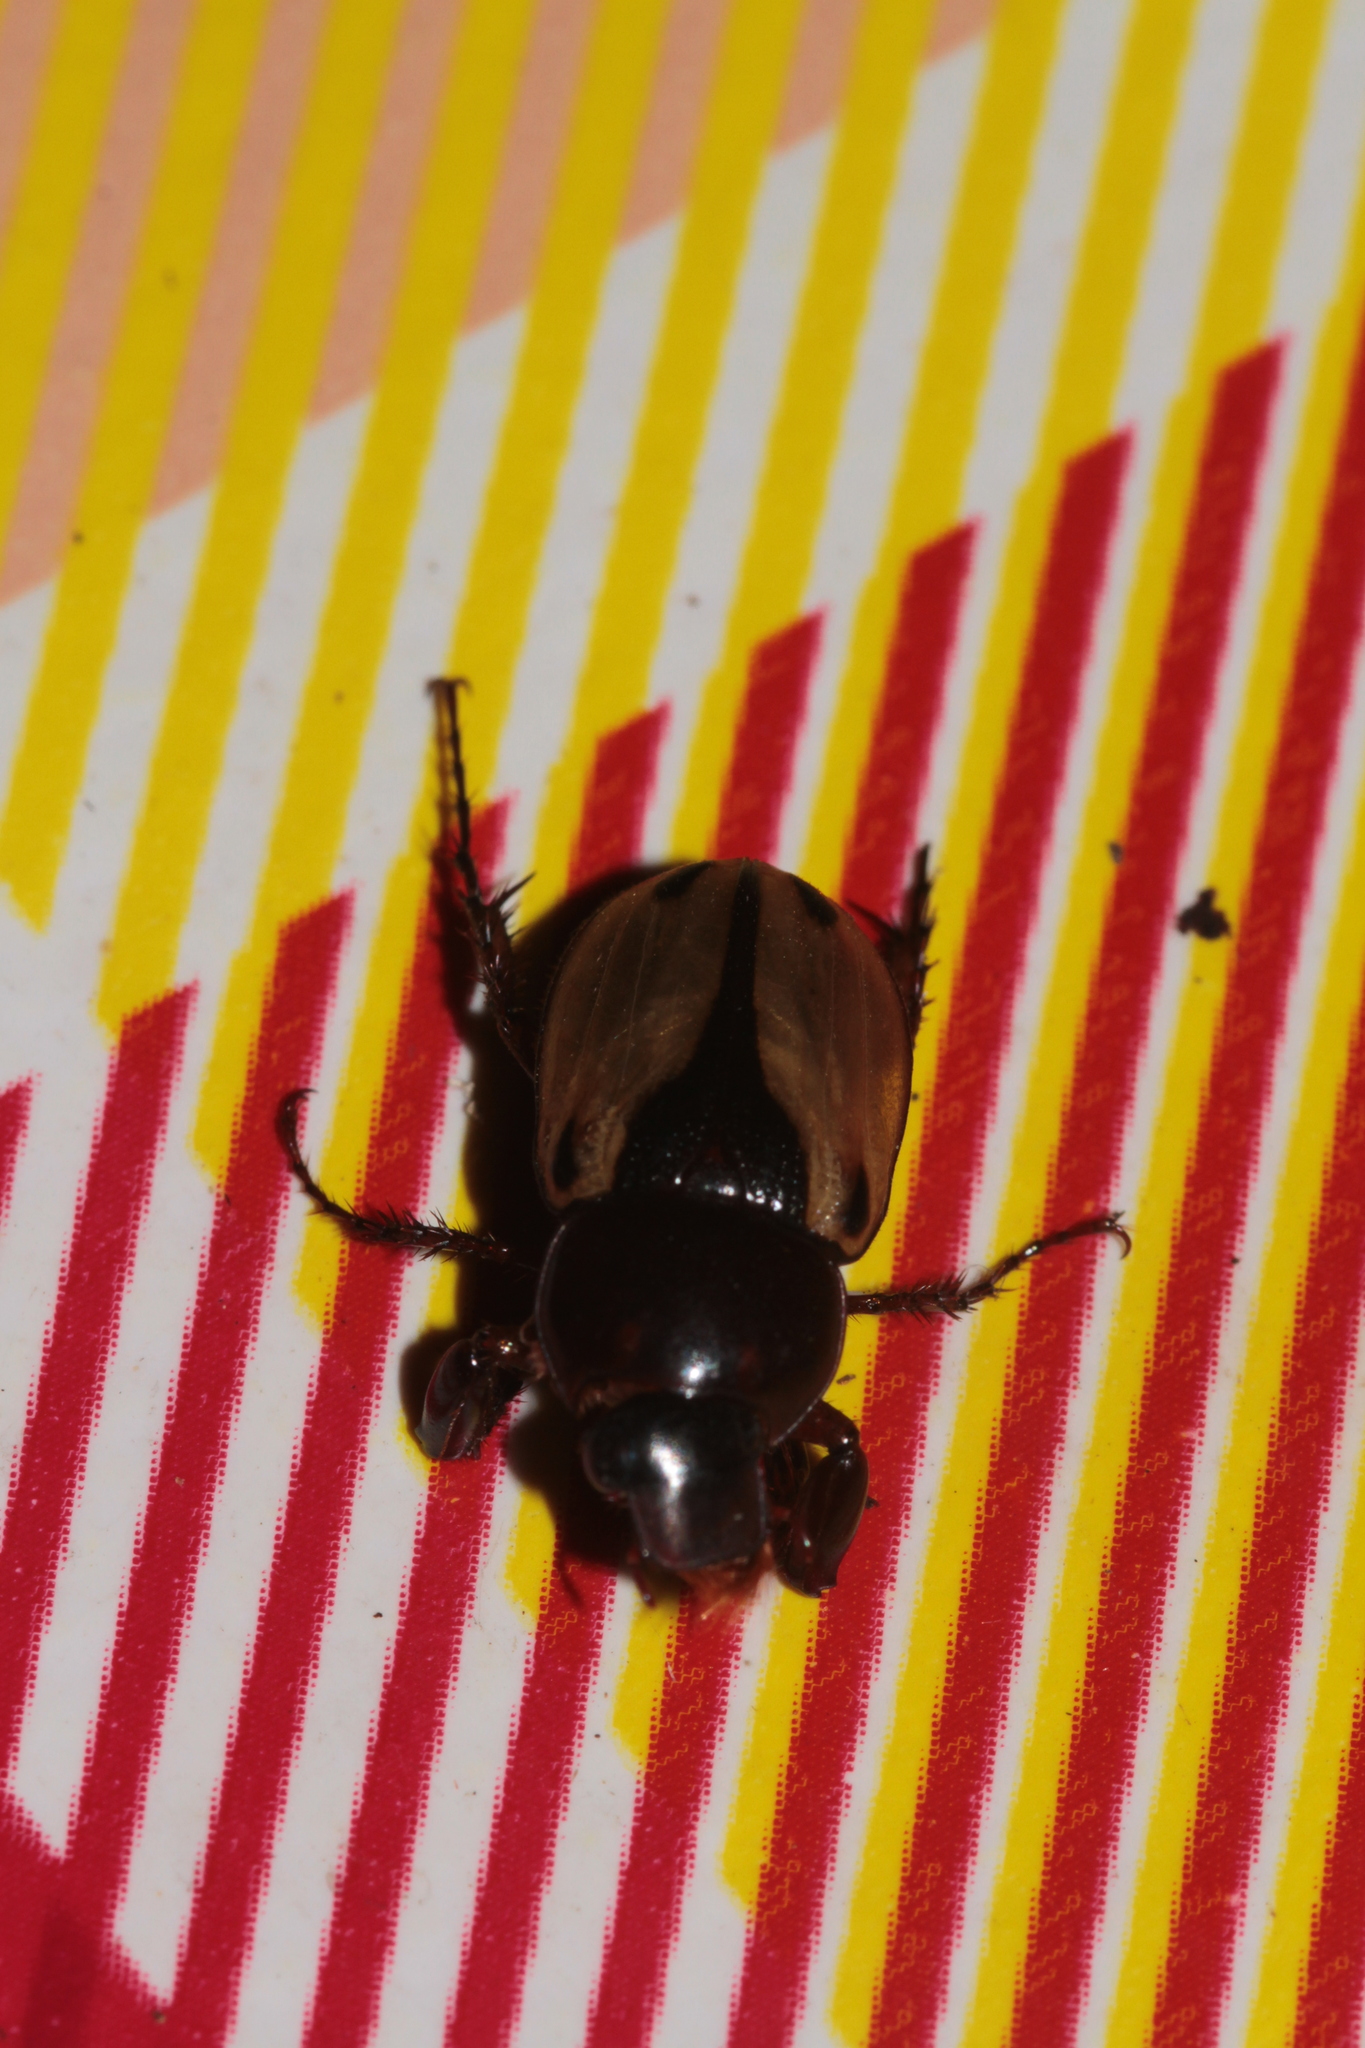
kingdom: Animalia
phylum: Arthropoda
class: Insecta
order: Coleoptera
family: Scarabaeidae
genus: Aspidolea
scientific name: Aspidolea bleuzeni
